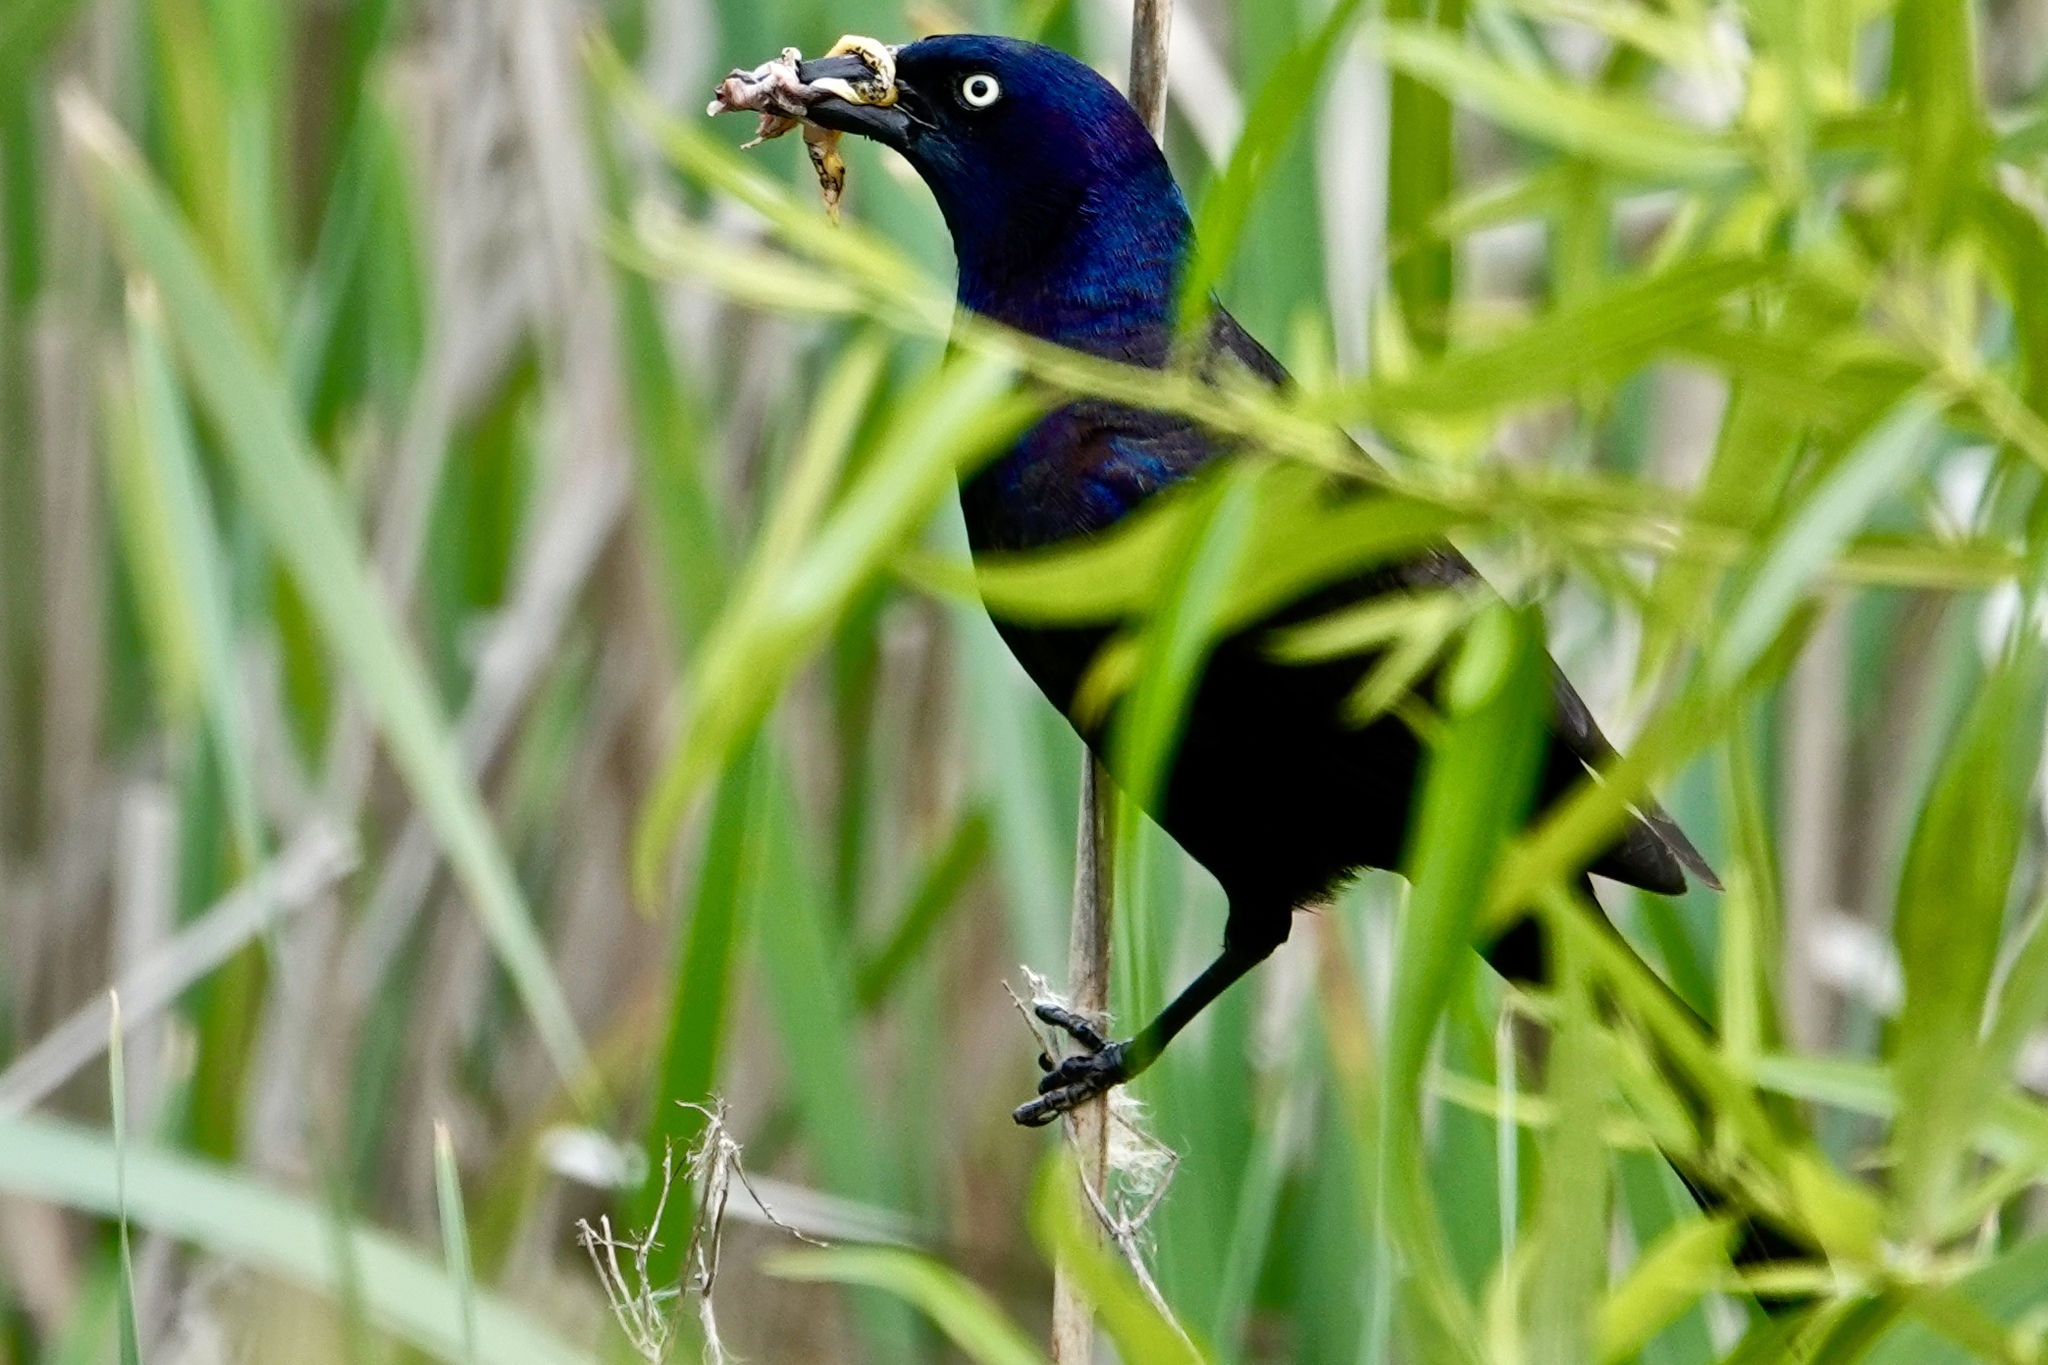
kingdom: Animalia
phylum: Chordata
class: Aves
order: Passeriformes
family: Icteridae
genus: Quiscalus
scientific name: Quiscalus quiscula
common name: Common grackle
